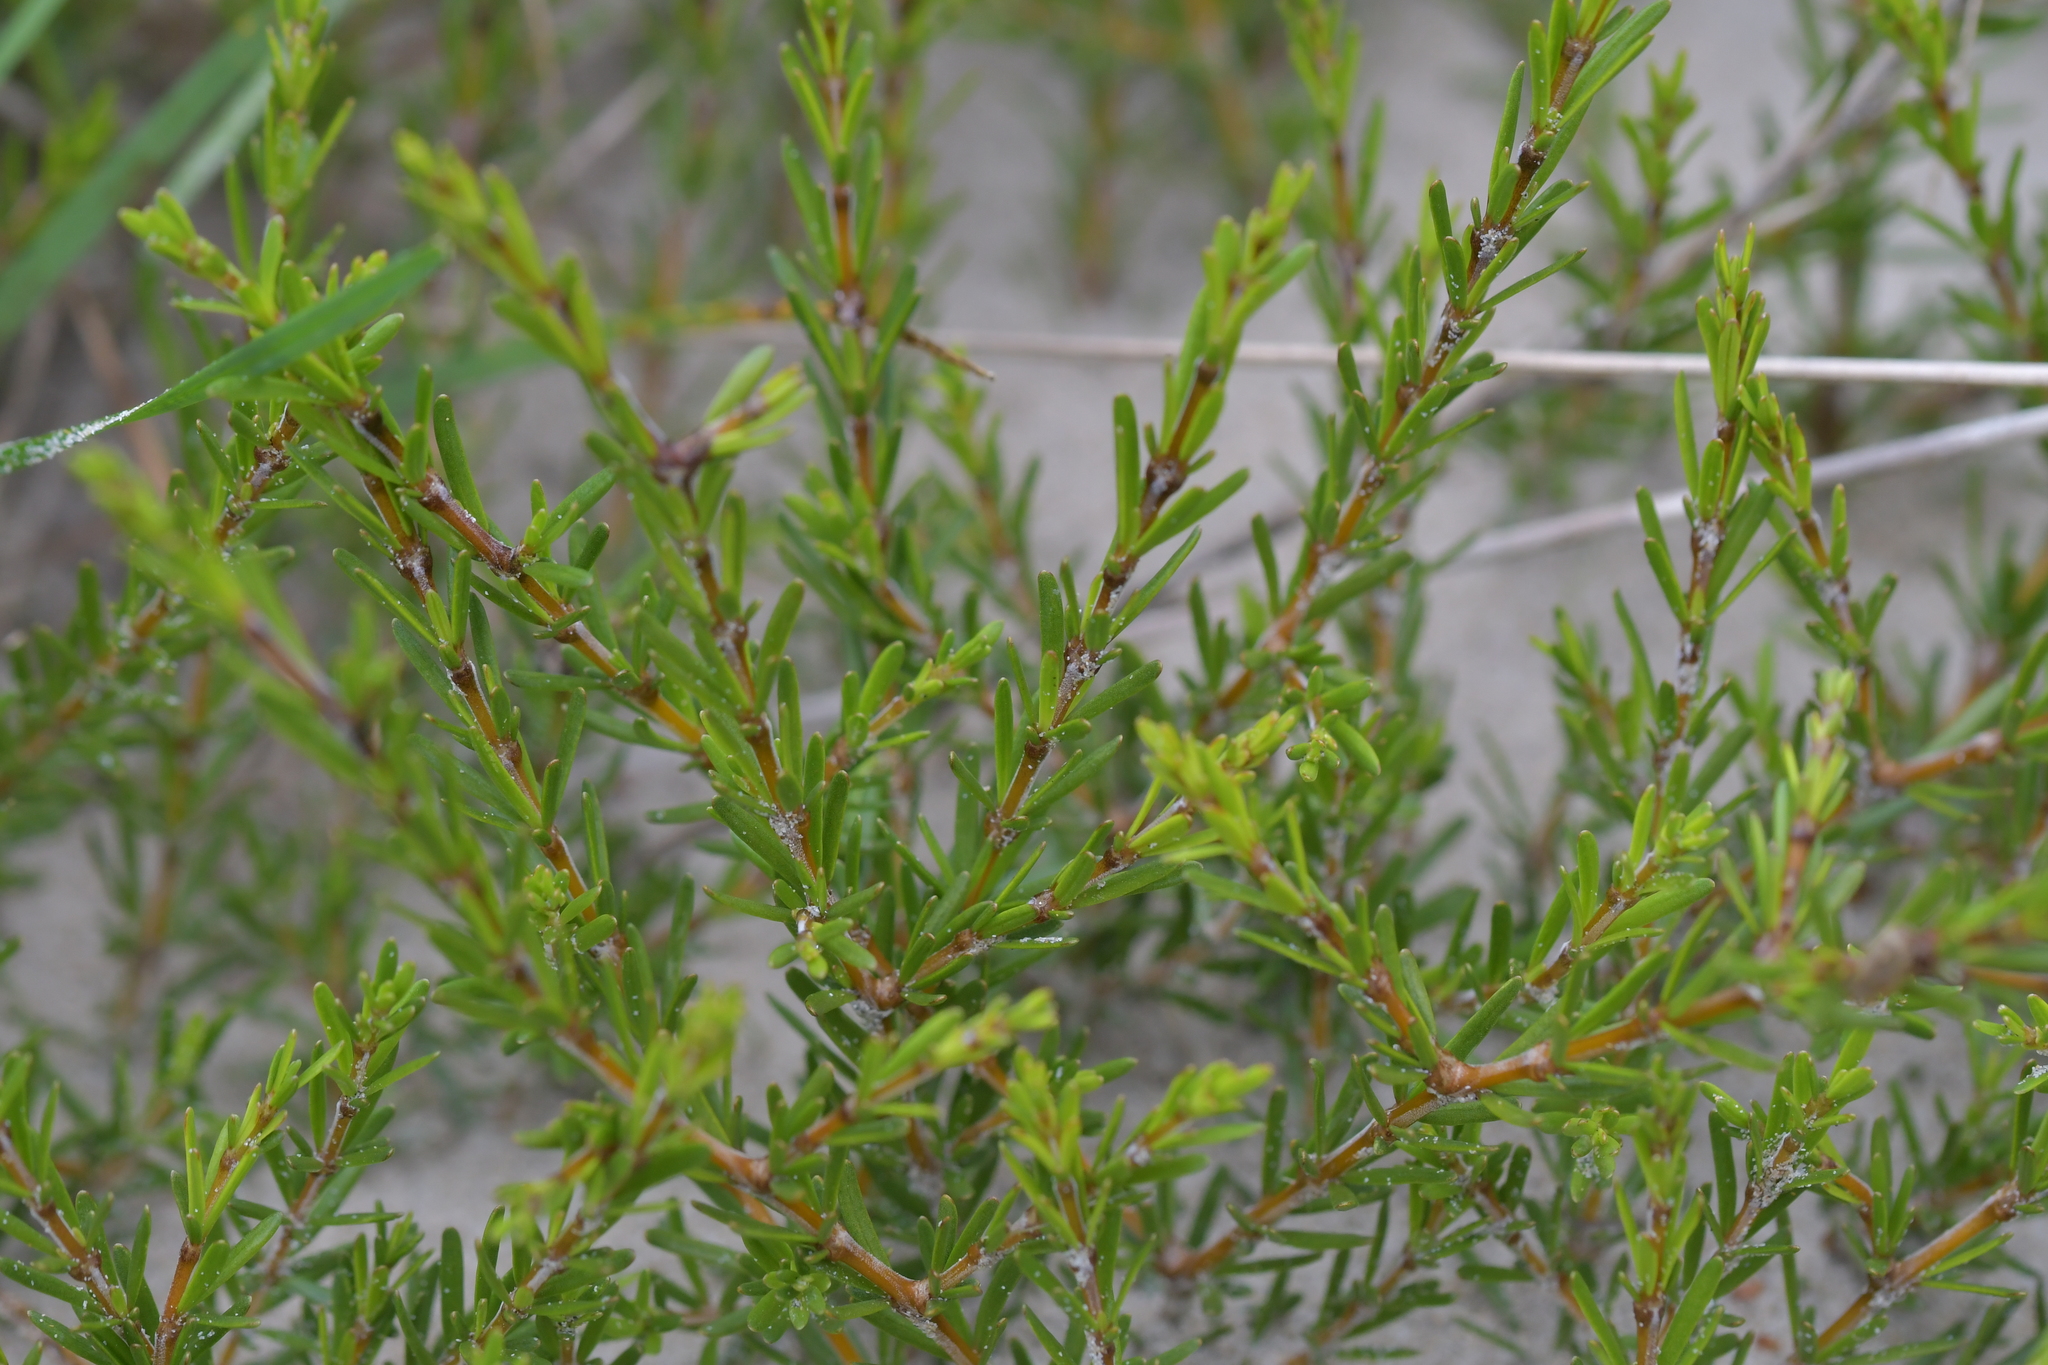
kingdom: Plantae
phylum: Tracheophyta
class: Magnoliopsida
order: Gentianales
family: Rubiaceae
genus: Coprosma
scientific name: Coprosma acerosa
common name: Sand coprosma
